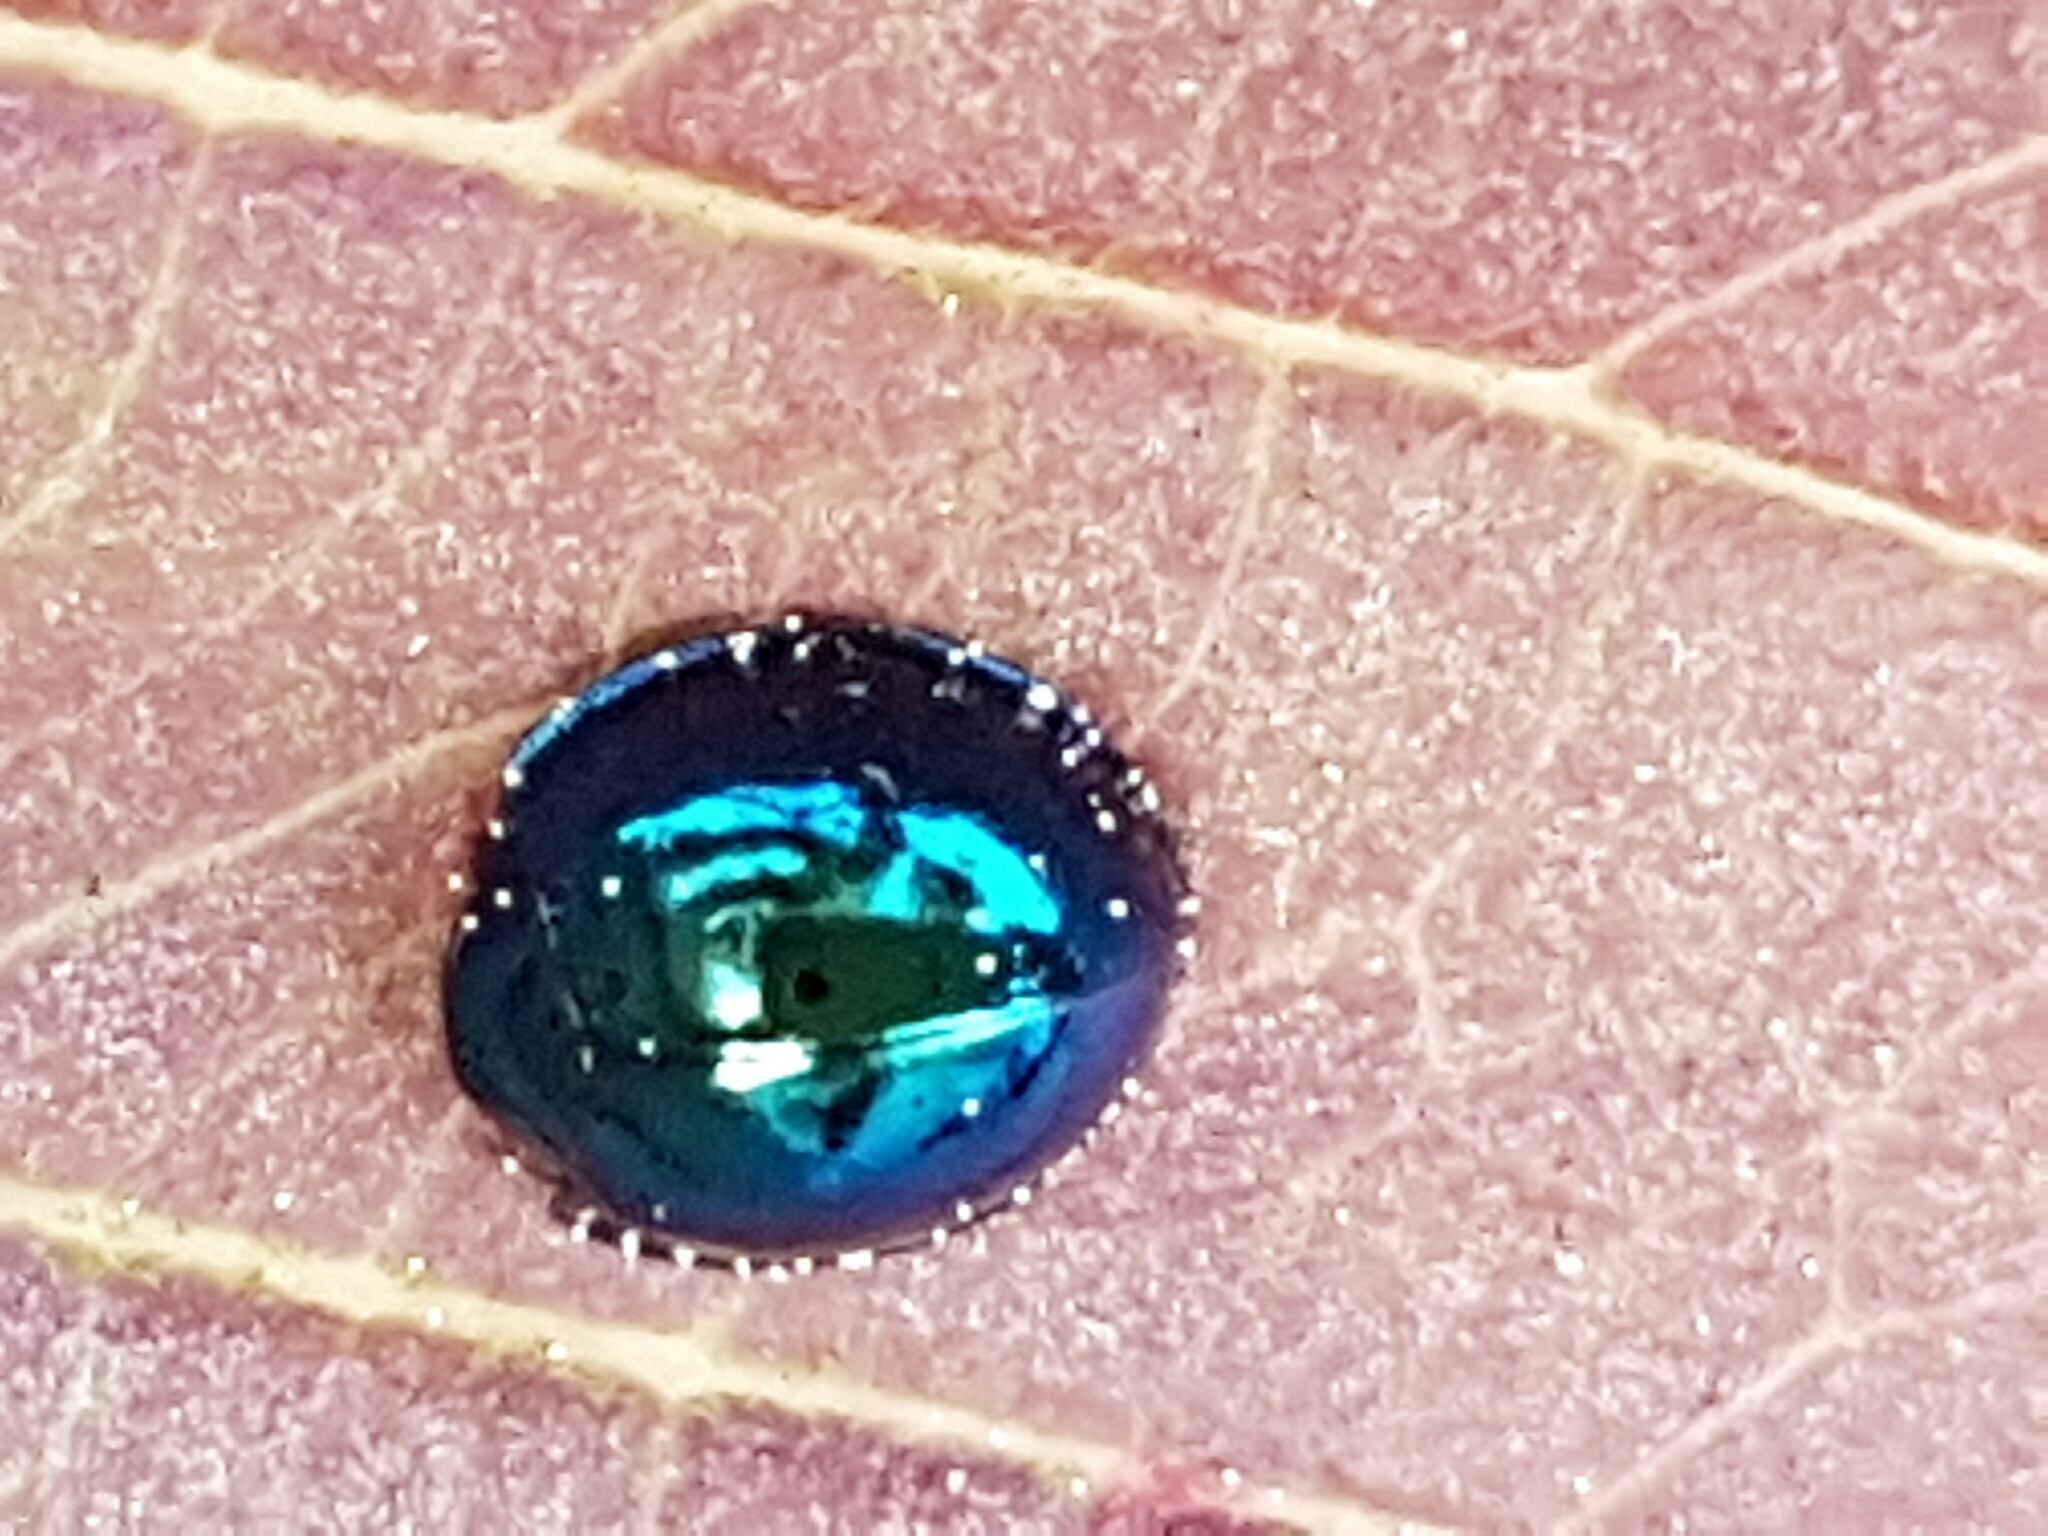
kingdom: Animalia
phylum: Arthropoda
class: Insecta
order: Coleoptera
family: Coccinellidae
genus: Halmus
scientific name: Halmus chalybeus
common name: Steel blue ladybird beetle
